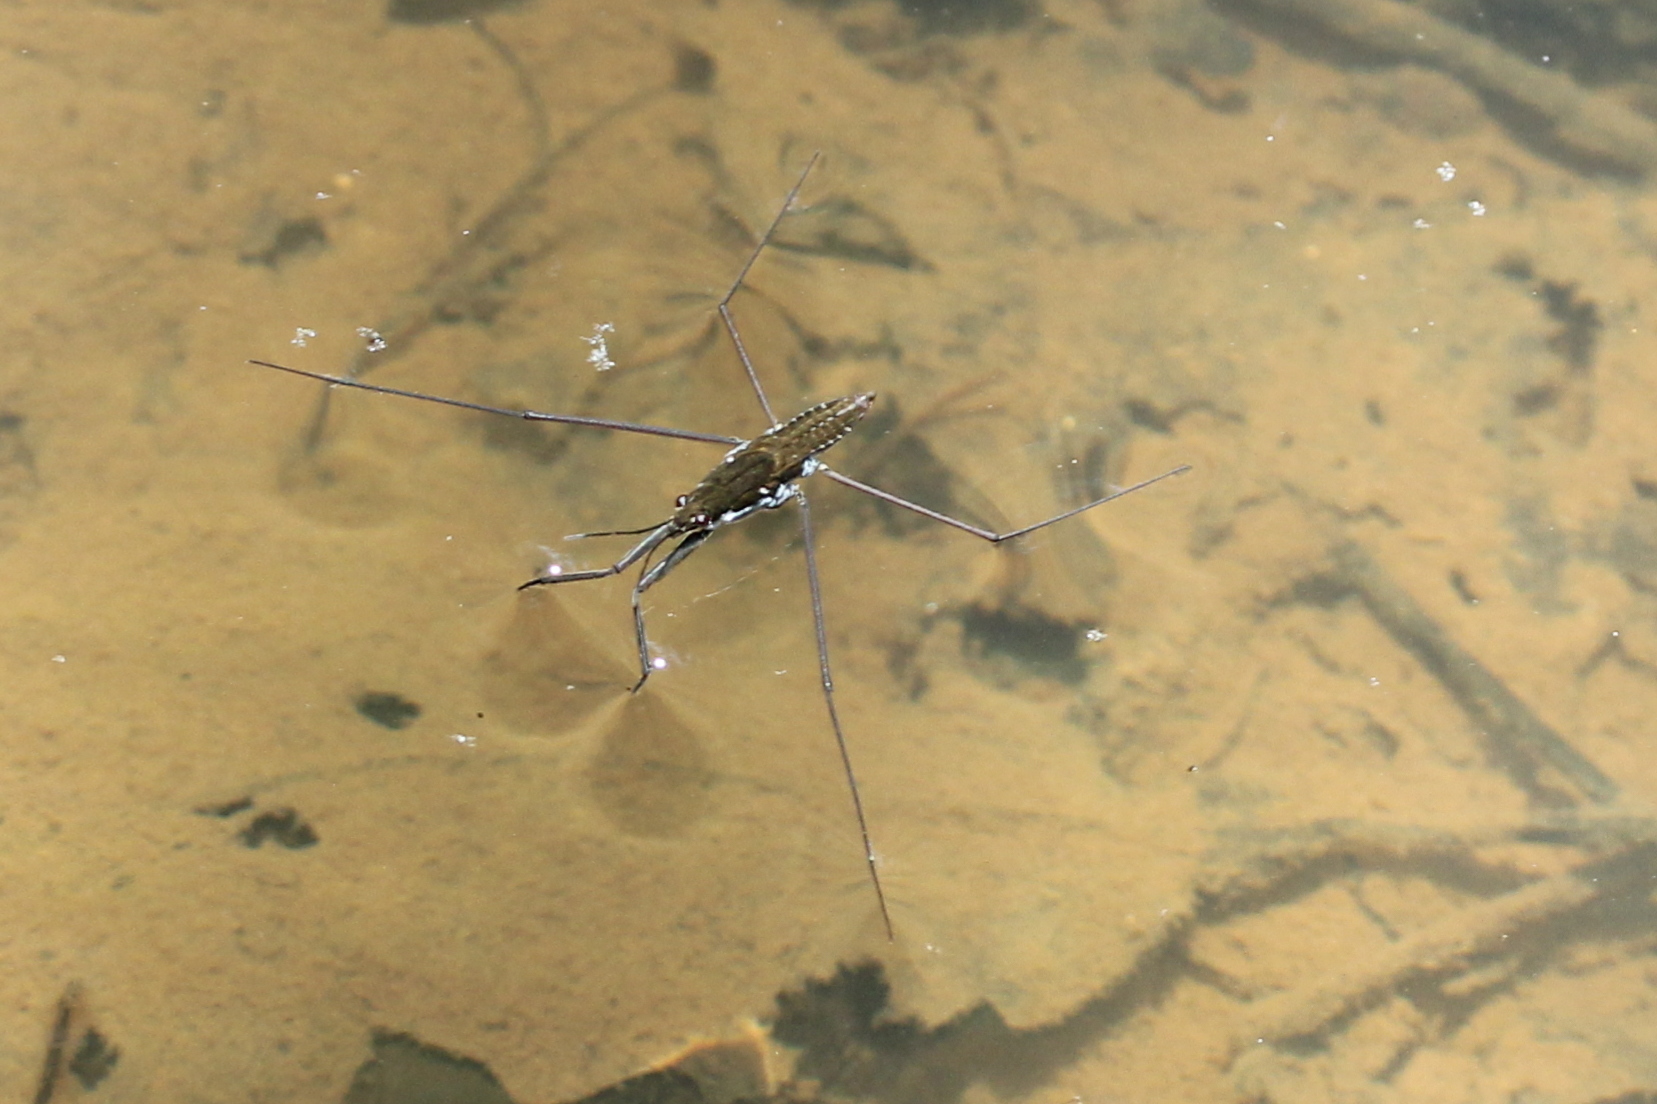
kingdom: Animalia
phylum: Arthropoda
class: Insecta
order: Hemiptera
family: Gerridae
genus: Aquarius
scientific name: Aquarius
